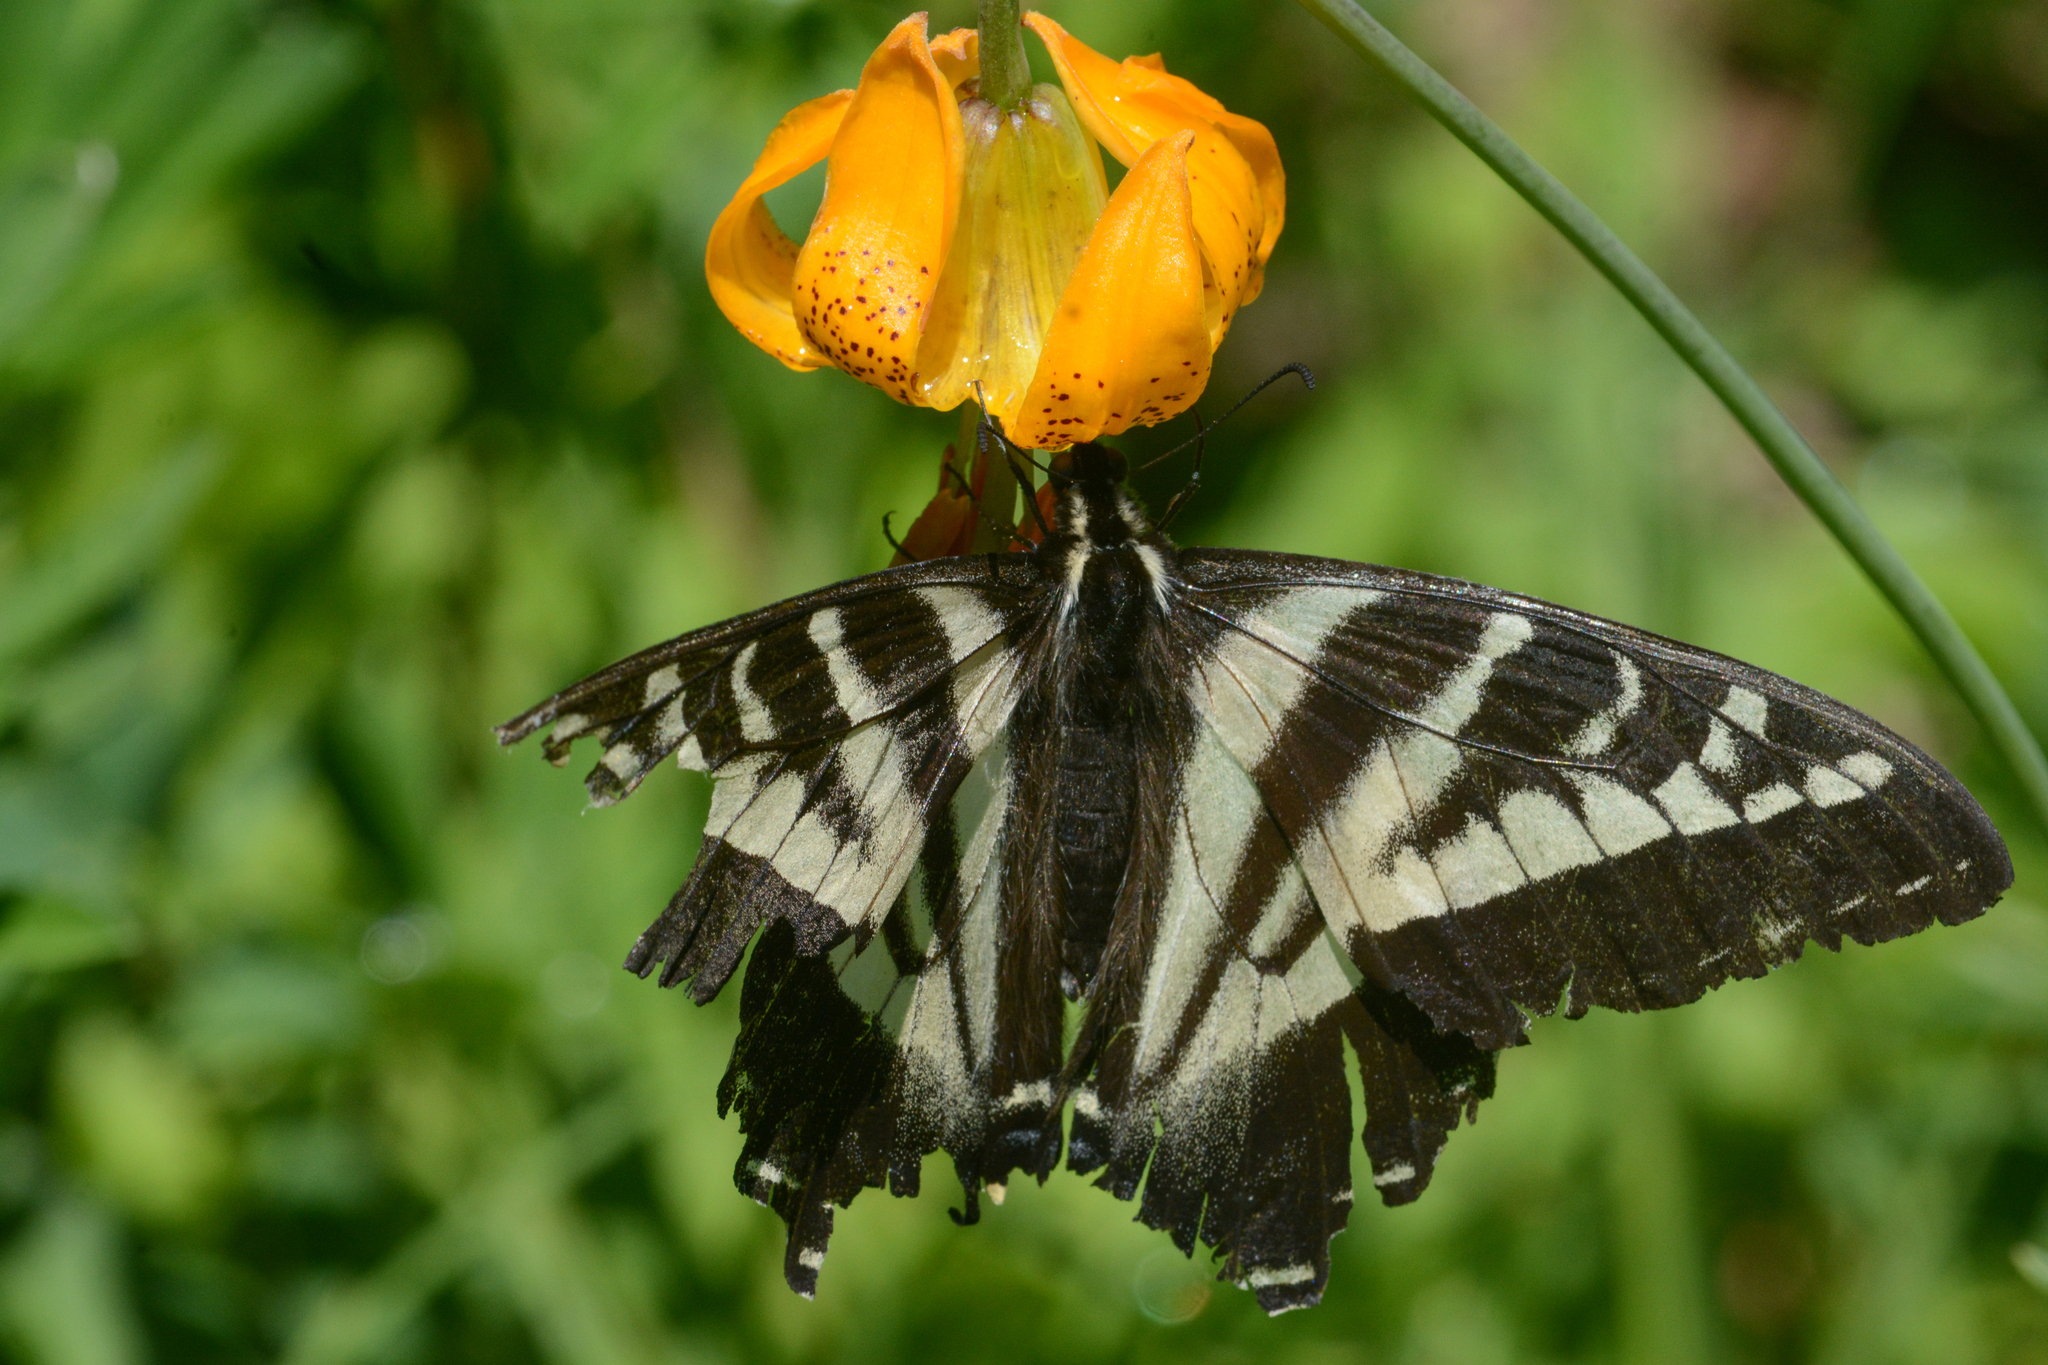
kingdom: Animalia
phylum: Arthropoda
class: Insecta
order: Lepidoptera
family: Papilionidae
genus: Papilio
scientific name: Papilio eurymedon
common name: Pale tiger swallowtail
